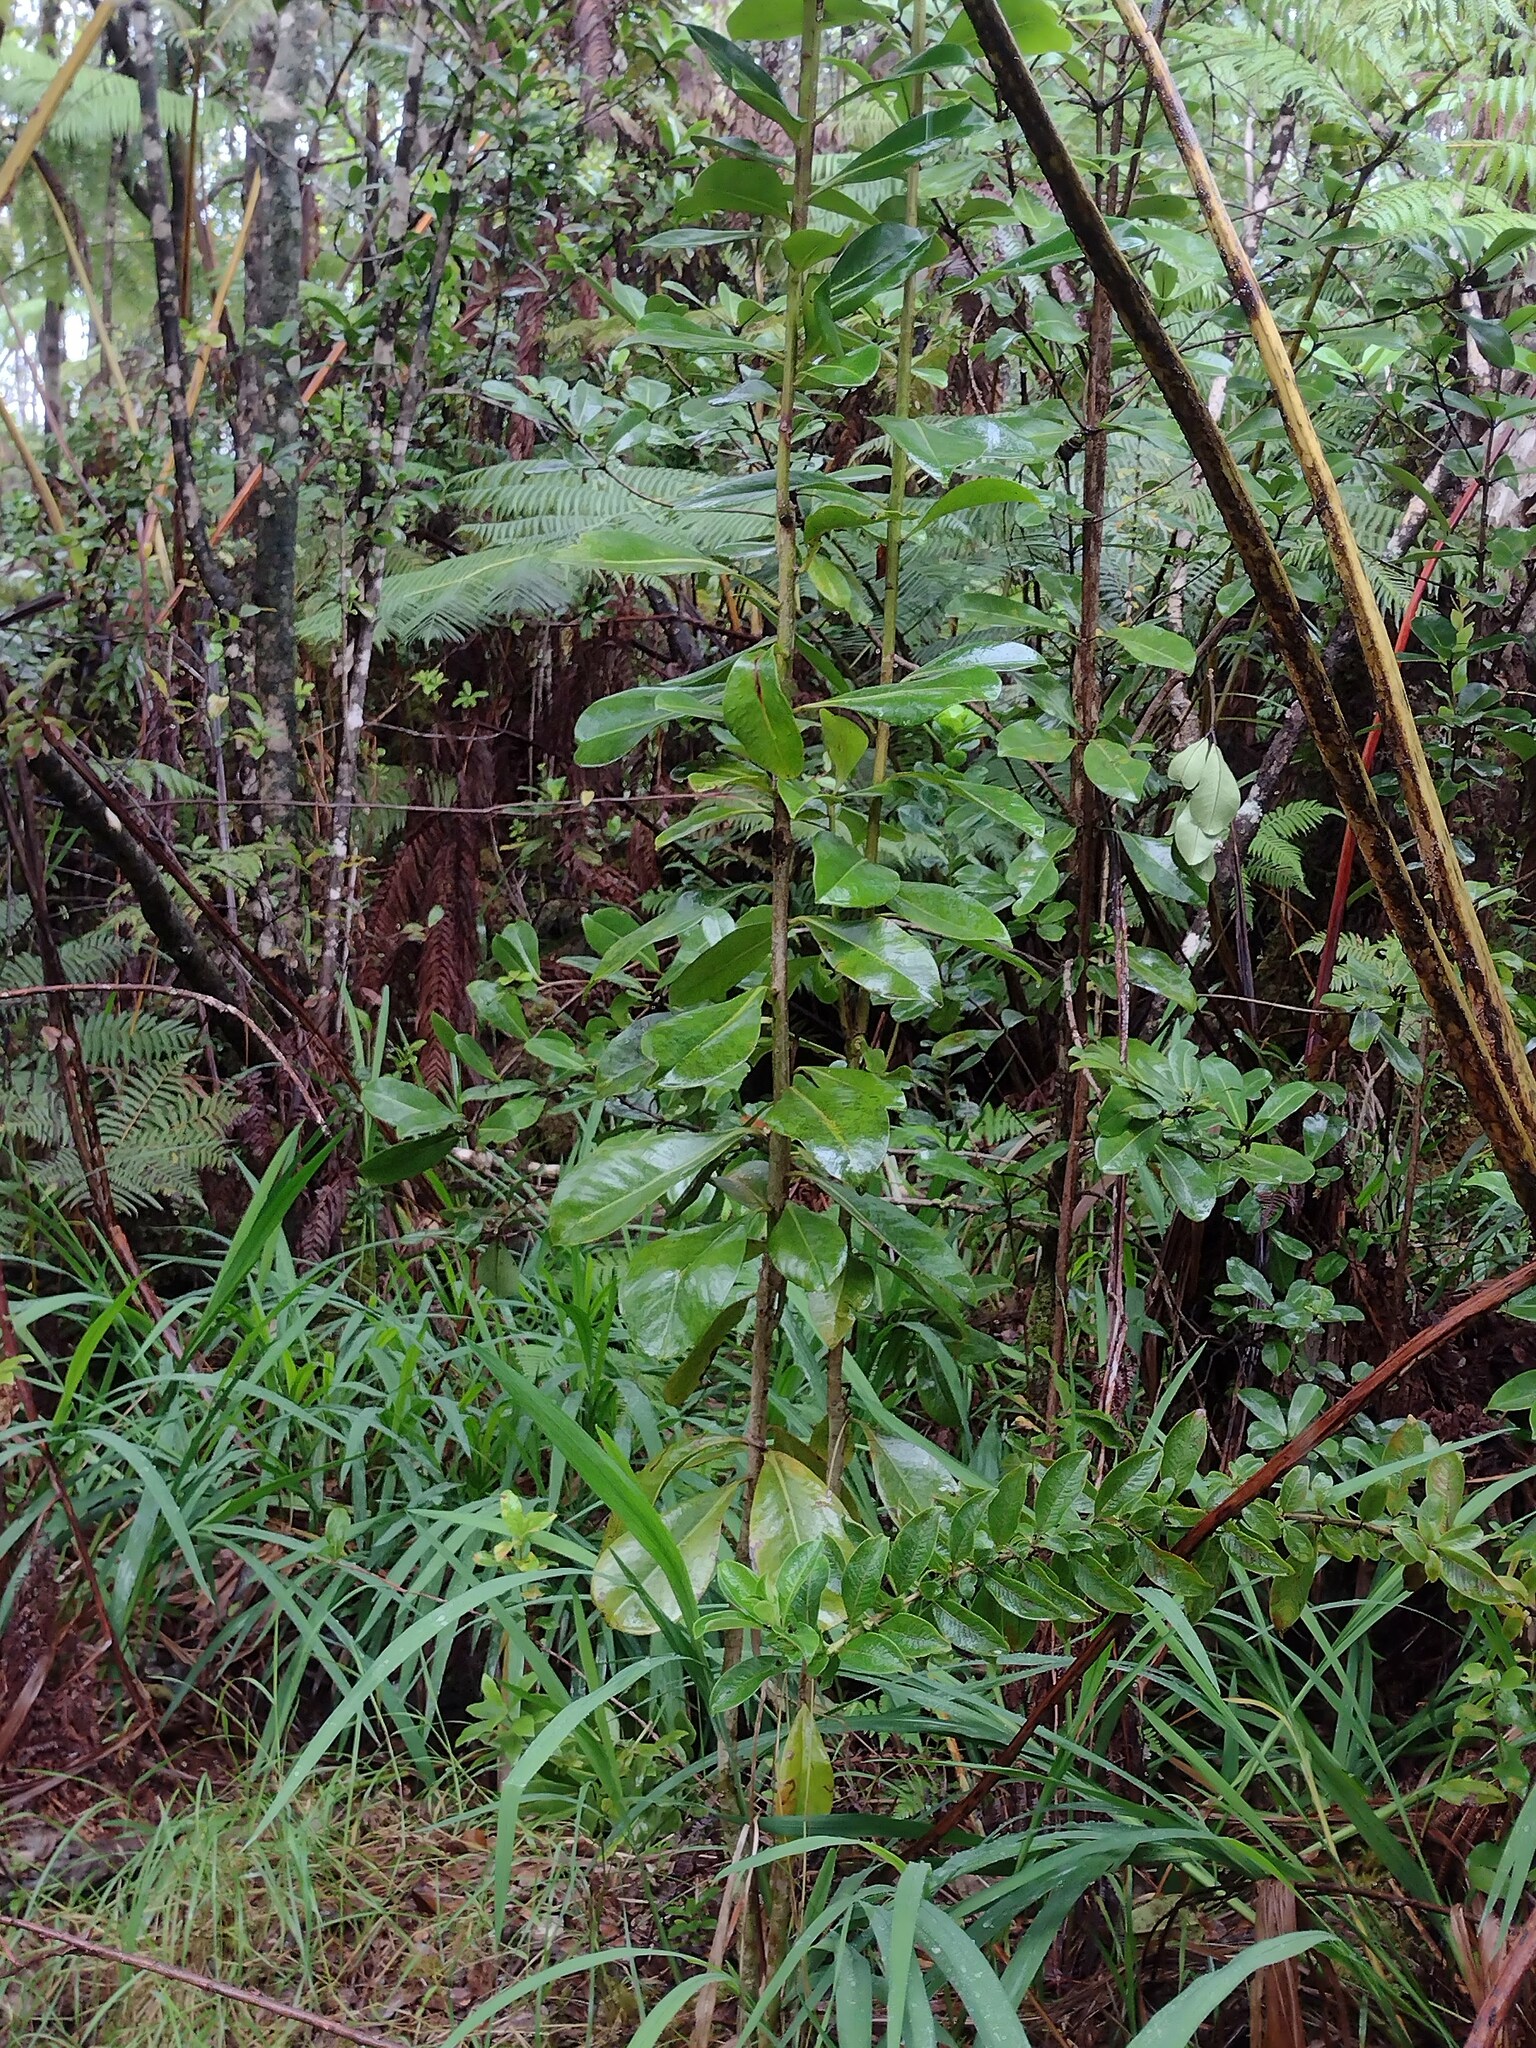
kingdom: Plantae
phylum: Tracheophyta
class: Magnoliopsida
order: Ericales
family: Primulaceae
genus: Myrsine
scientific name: Myrsine lessertiana
